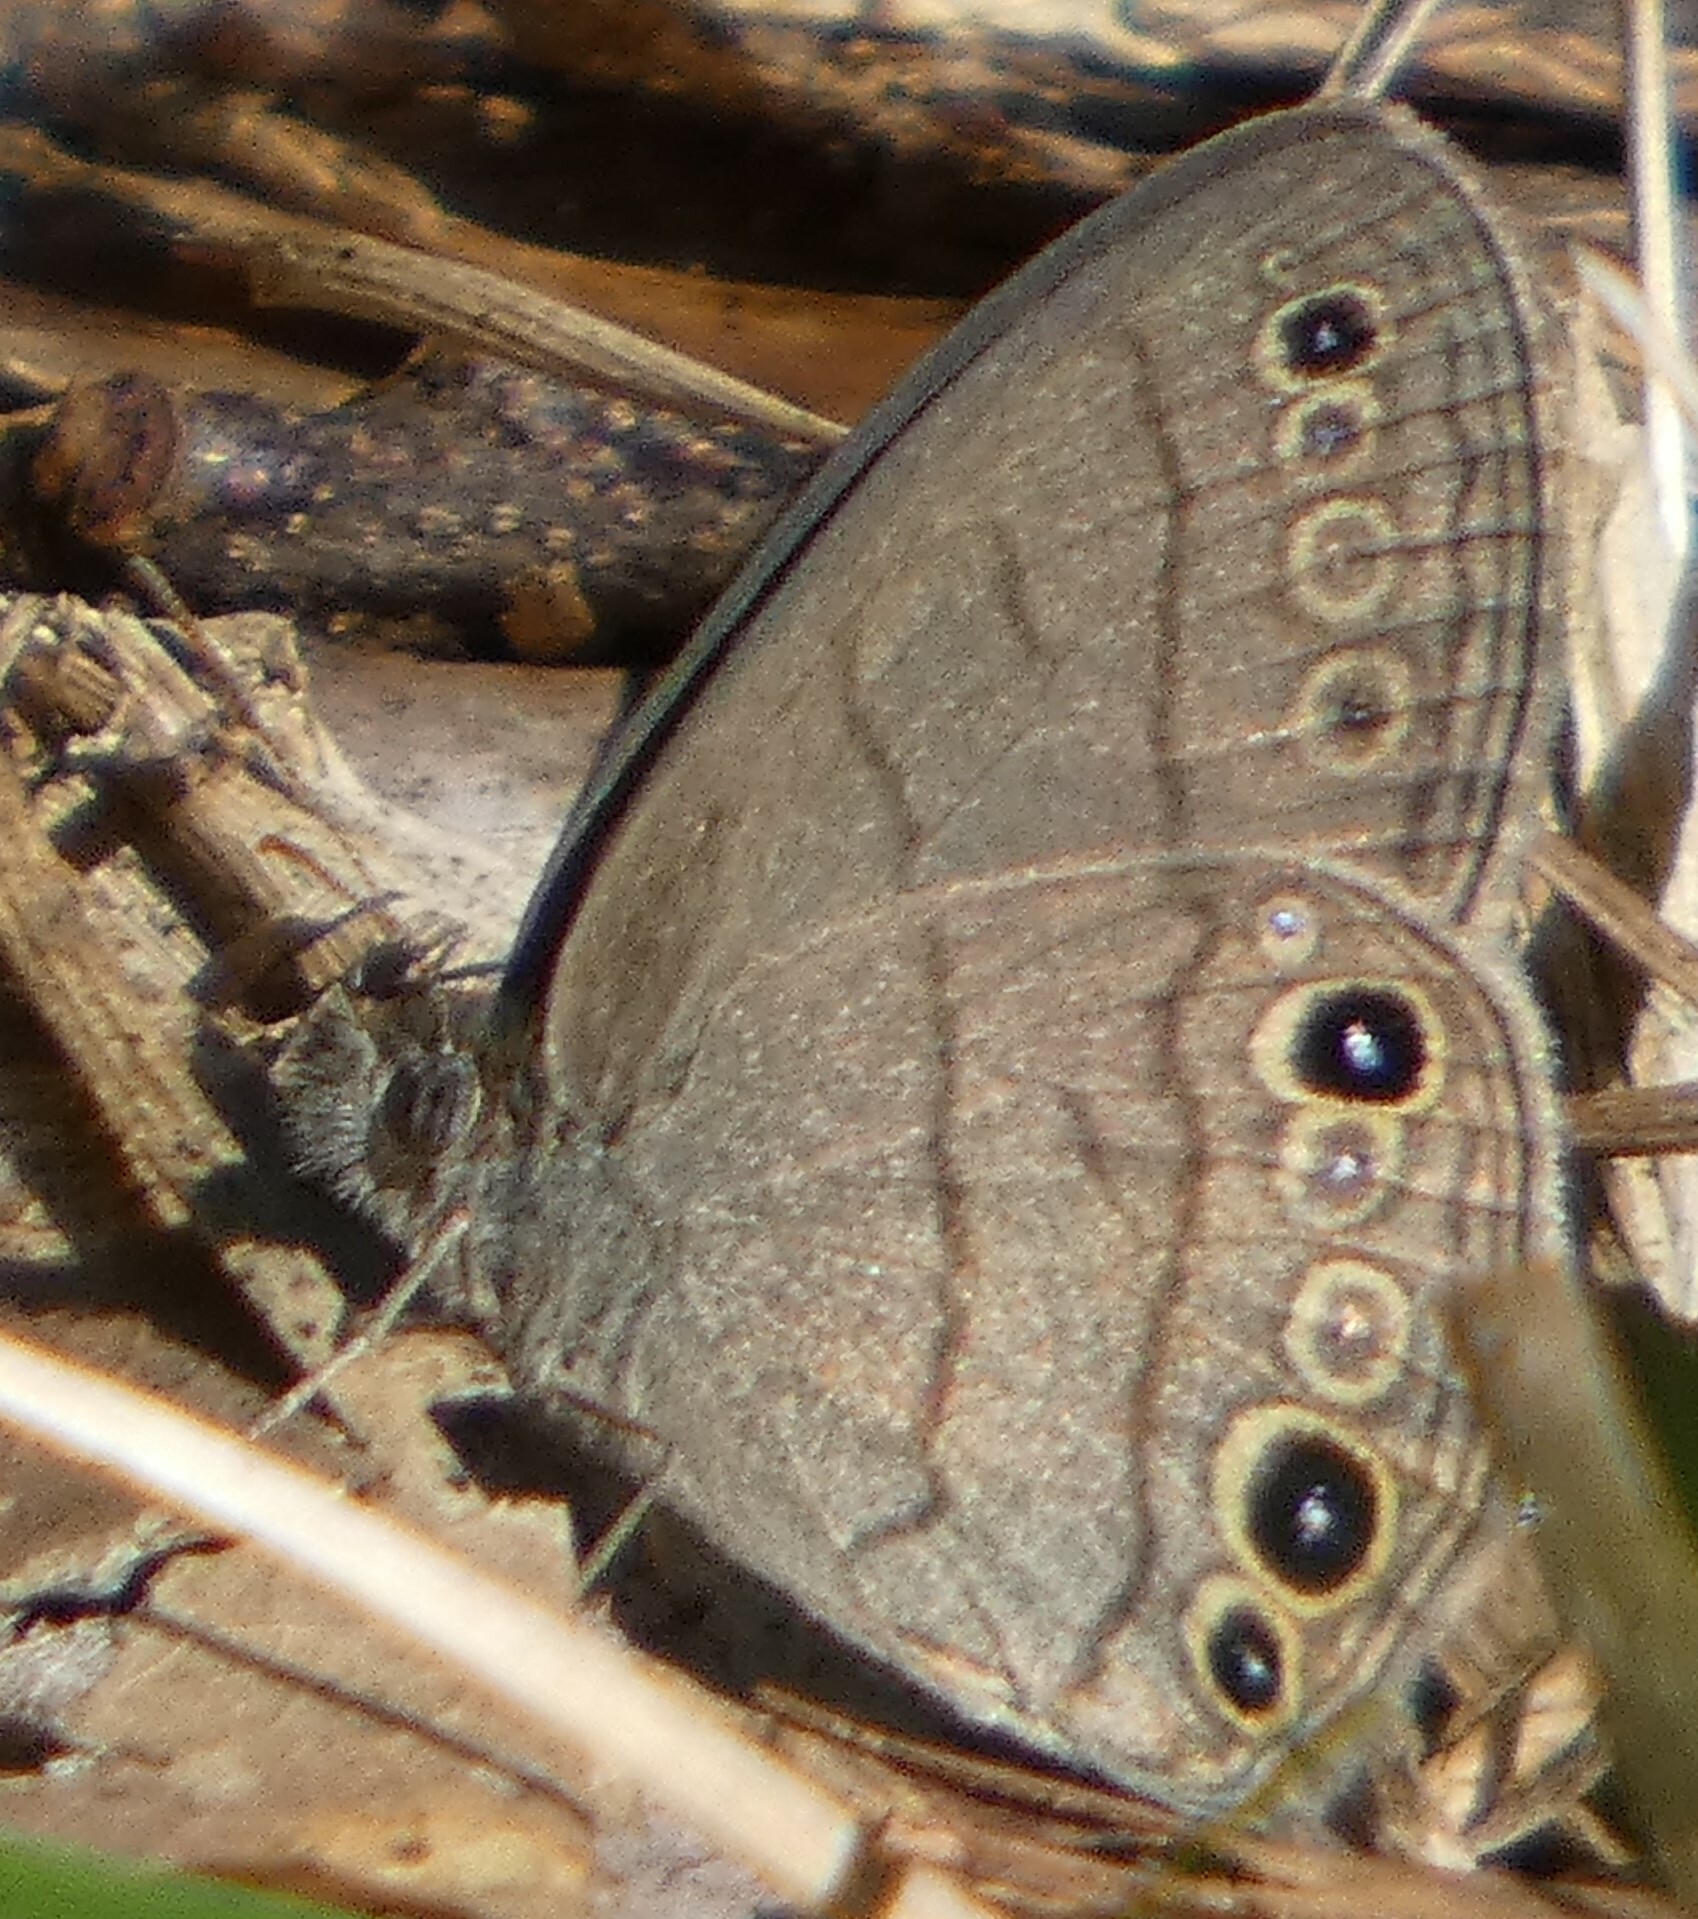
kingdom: Animalia
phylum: Arthropoda
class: Insecta
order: Lepidoptera
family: Nymphalidae
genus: Hermeuptychia
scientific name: Hermeuptychia hermes
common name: Hermes satyr
